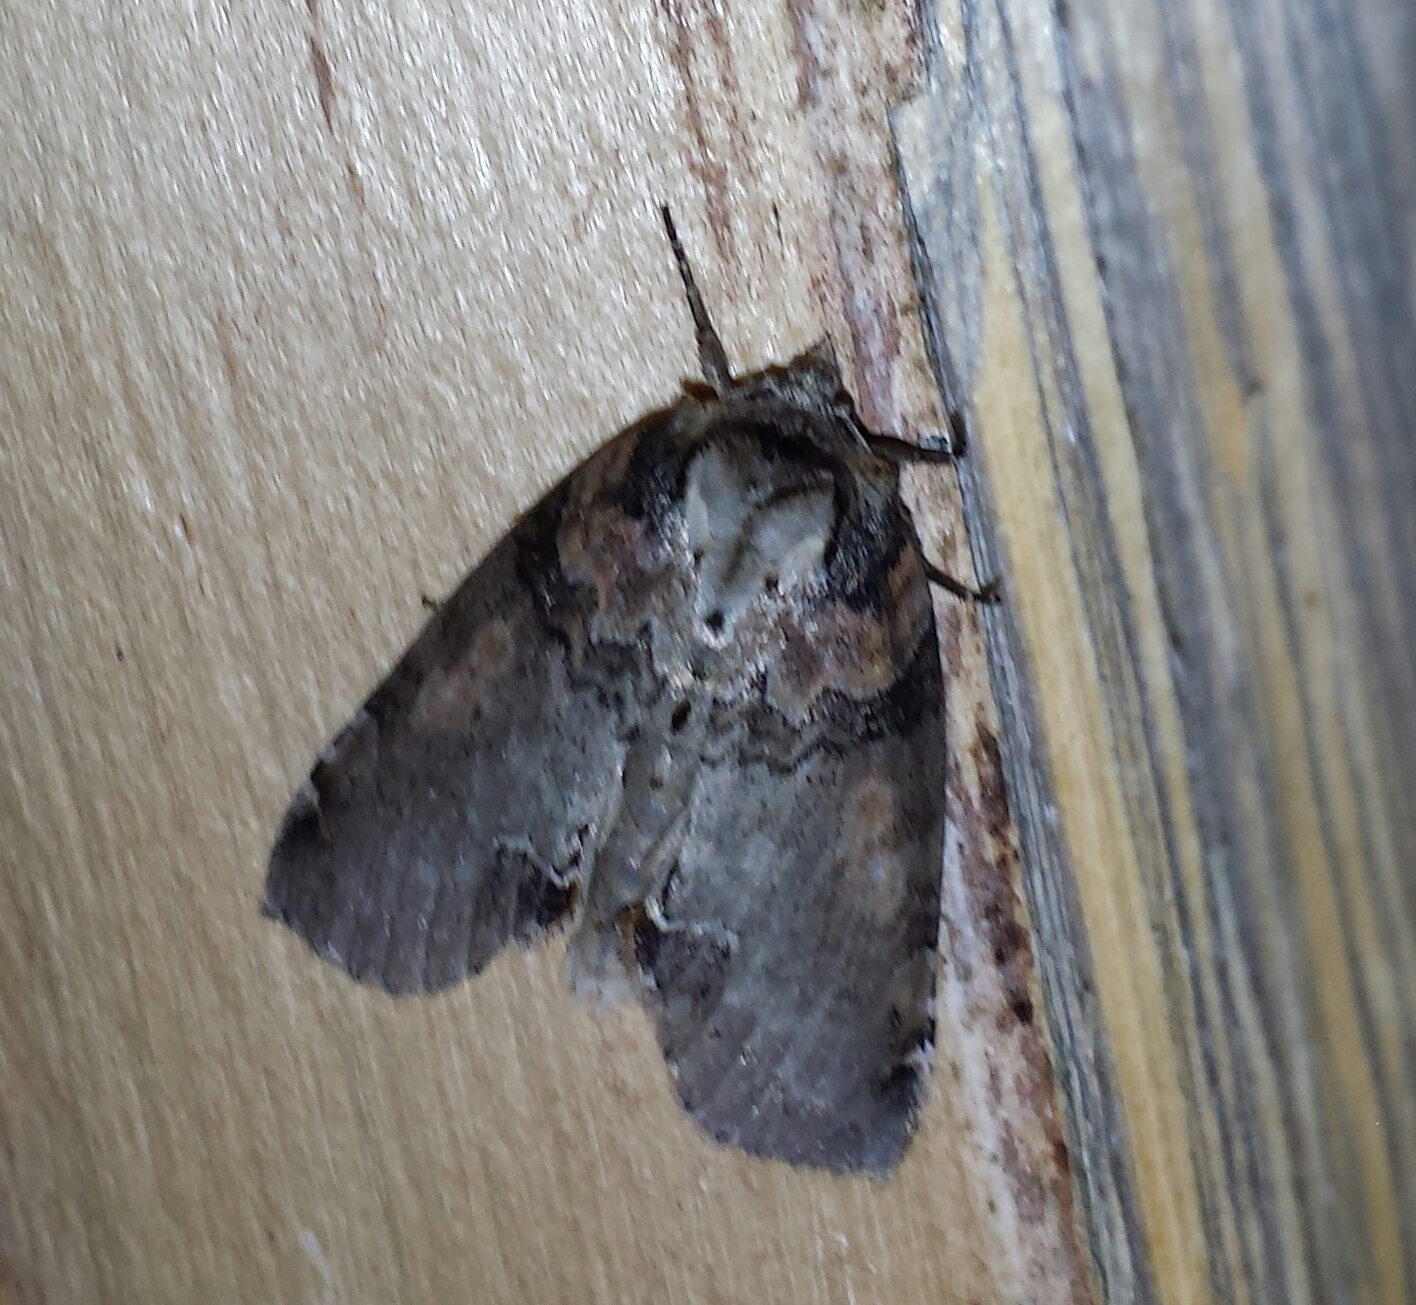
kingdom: Animalia
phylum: Arthropoda
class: Insecta
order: Lepidoptera
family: Drepanidae
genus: Pseudothyatira
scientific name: Pseudothyatira cymatophoroides
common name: Tufted thyatirid moth
